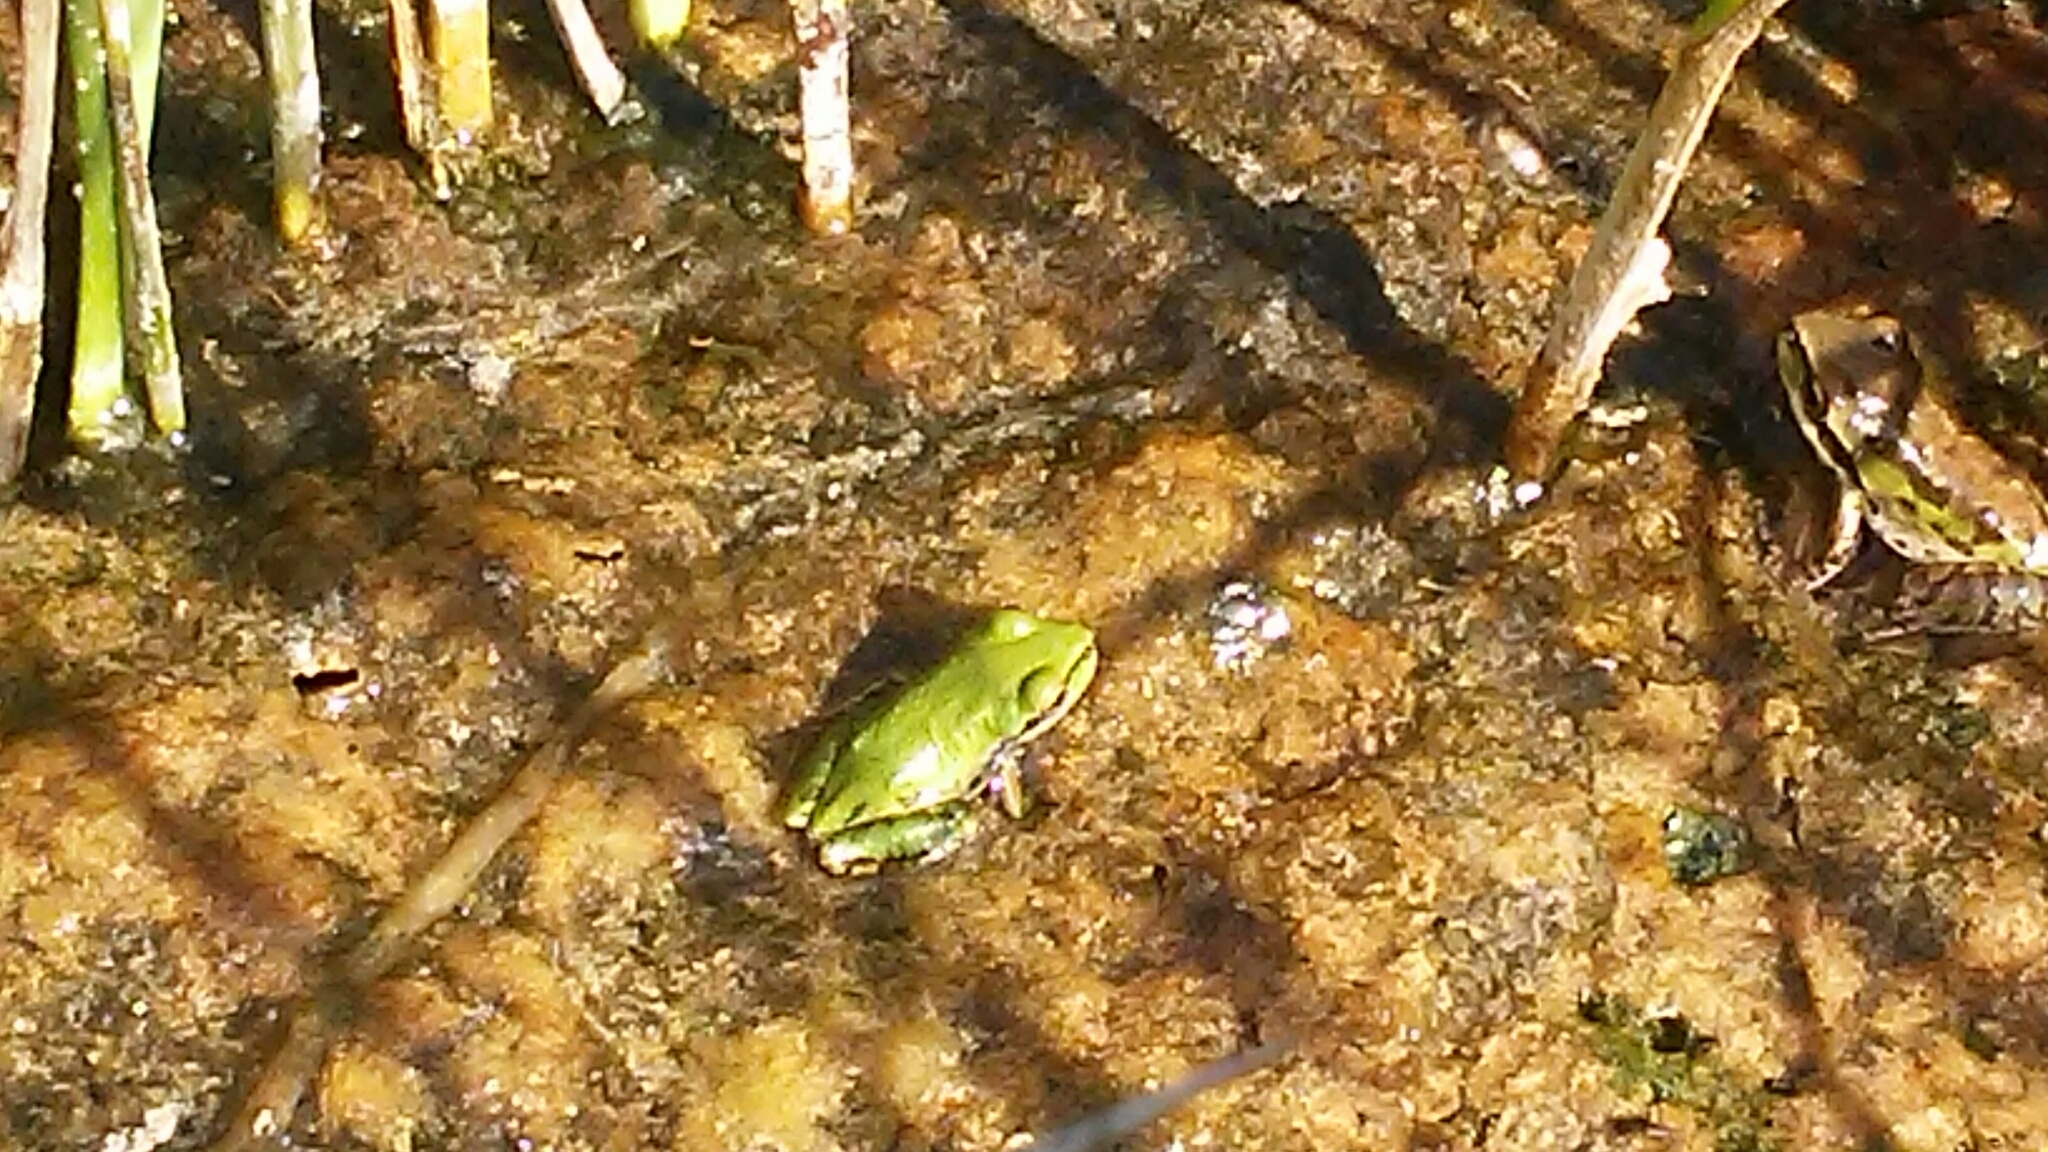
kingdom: Animalia
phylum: Chordata
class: Amphibia
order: Anura
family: Hylidae
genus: Pseudacris
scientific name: Pseudacris regilla
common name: Pacific chorus frog
